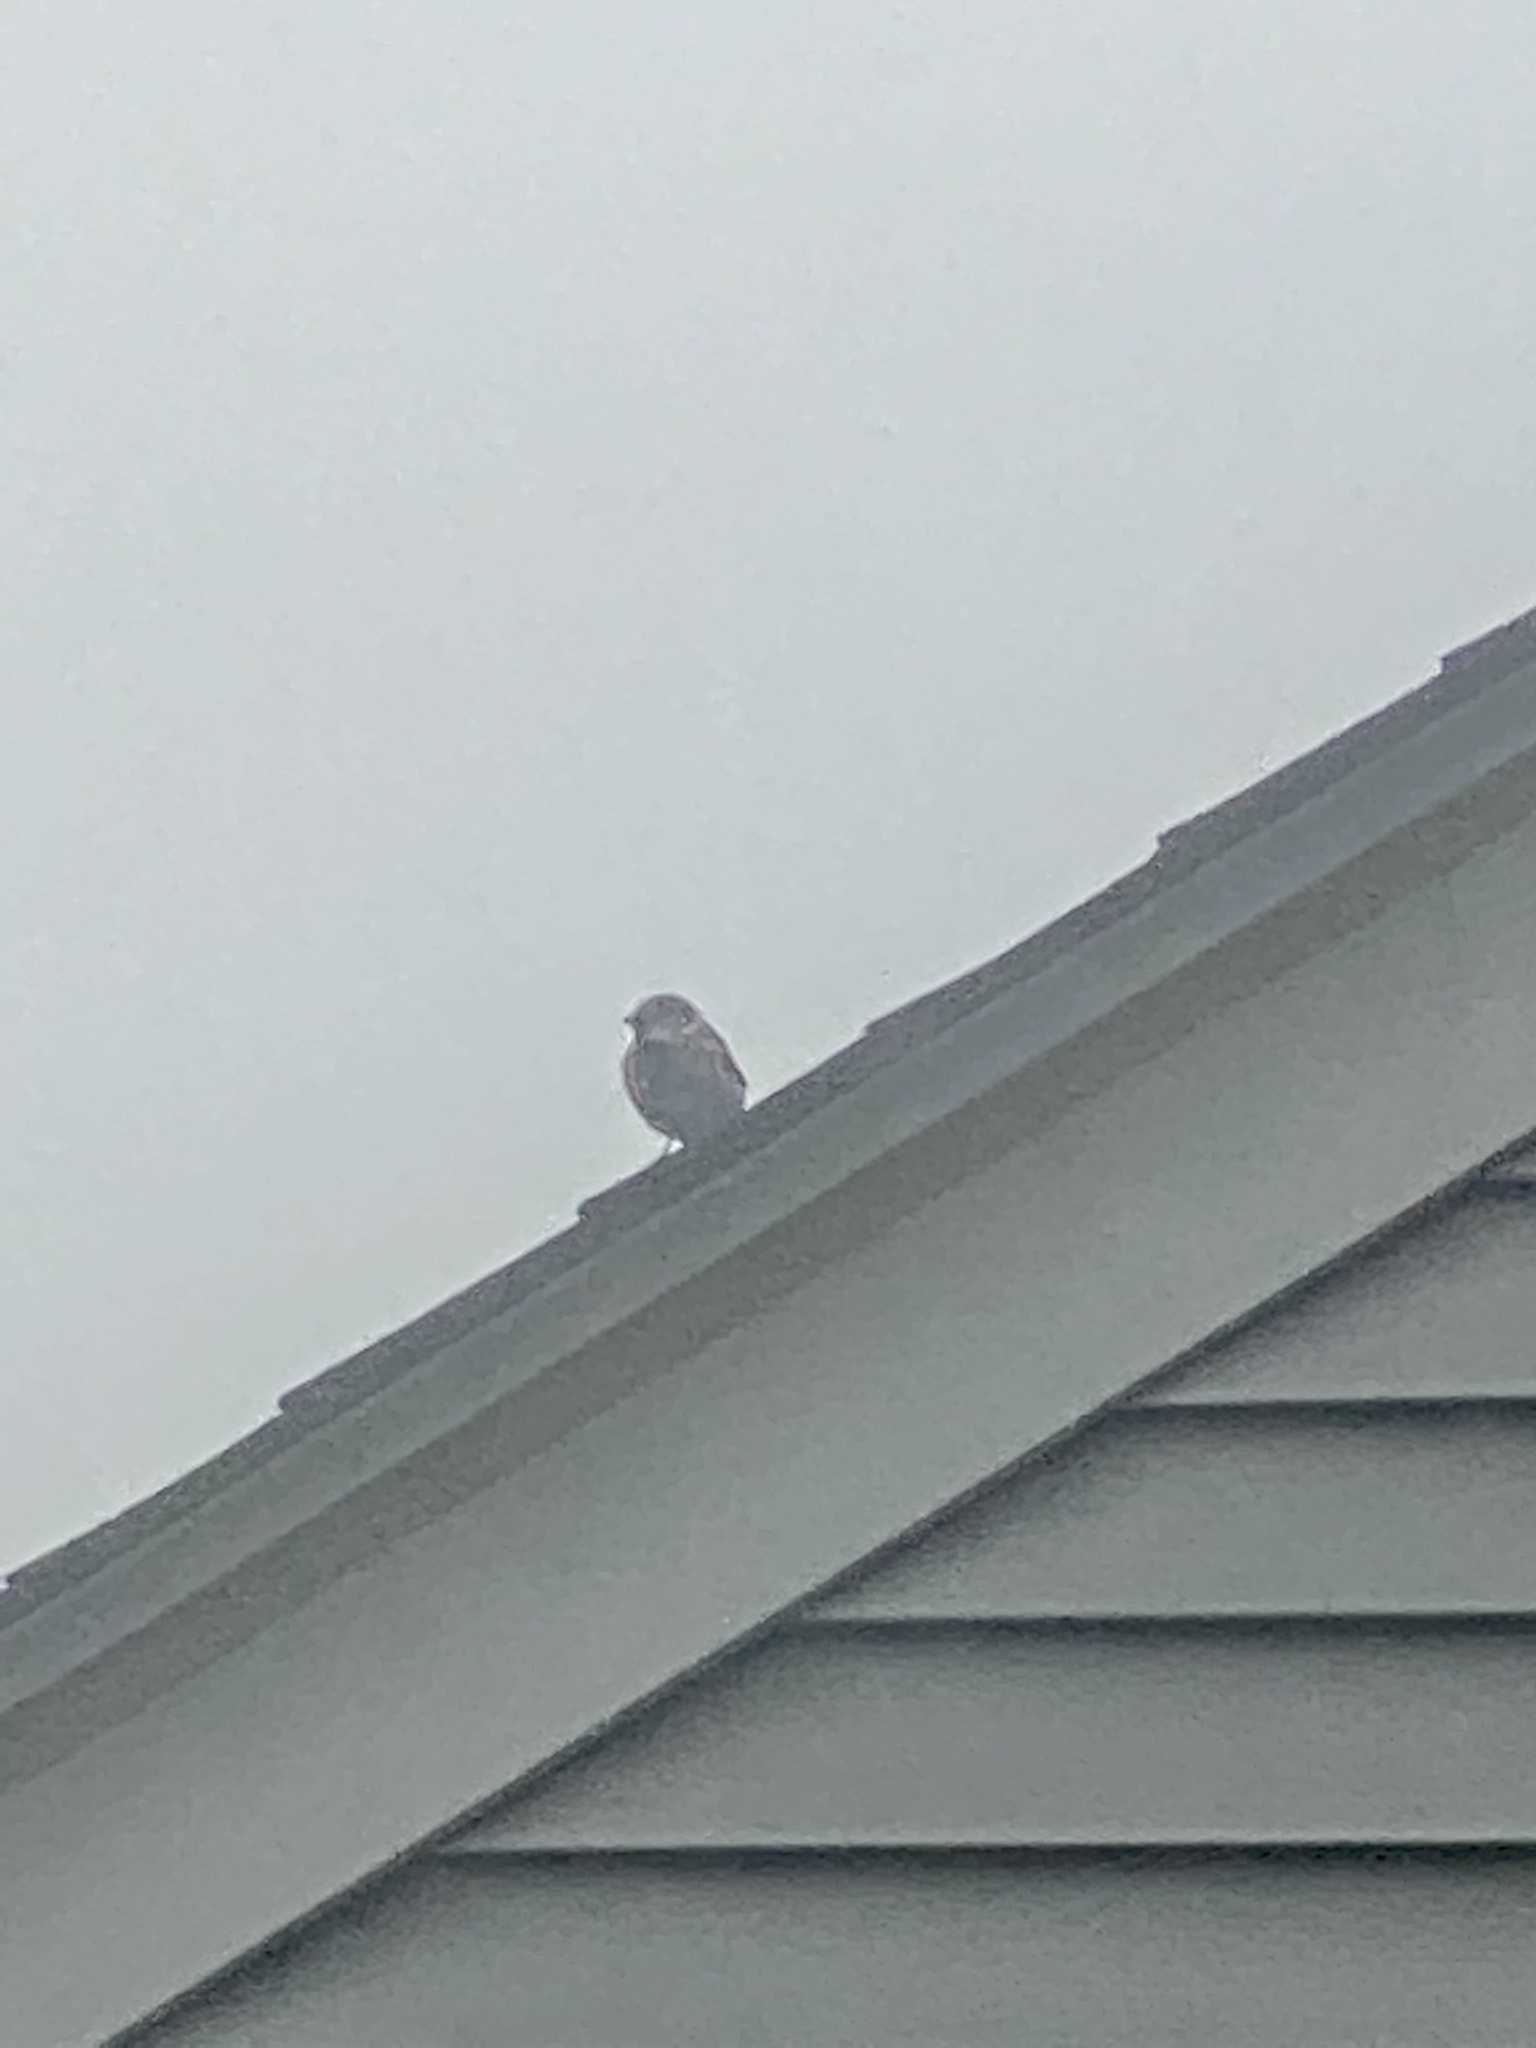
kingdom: Animalia
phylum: Chordata
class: Aves
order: Passeriformes
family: Passeridae
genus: Passer
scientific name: Passer domesticus
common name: House sparrow
